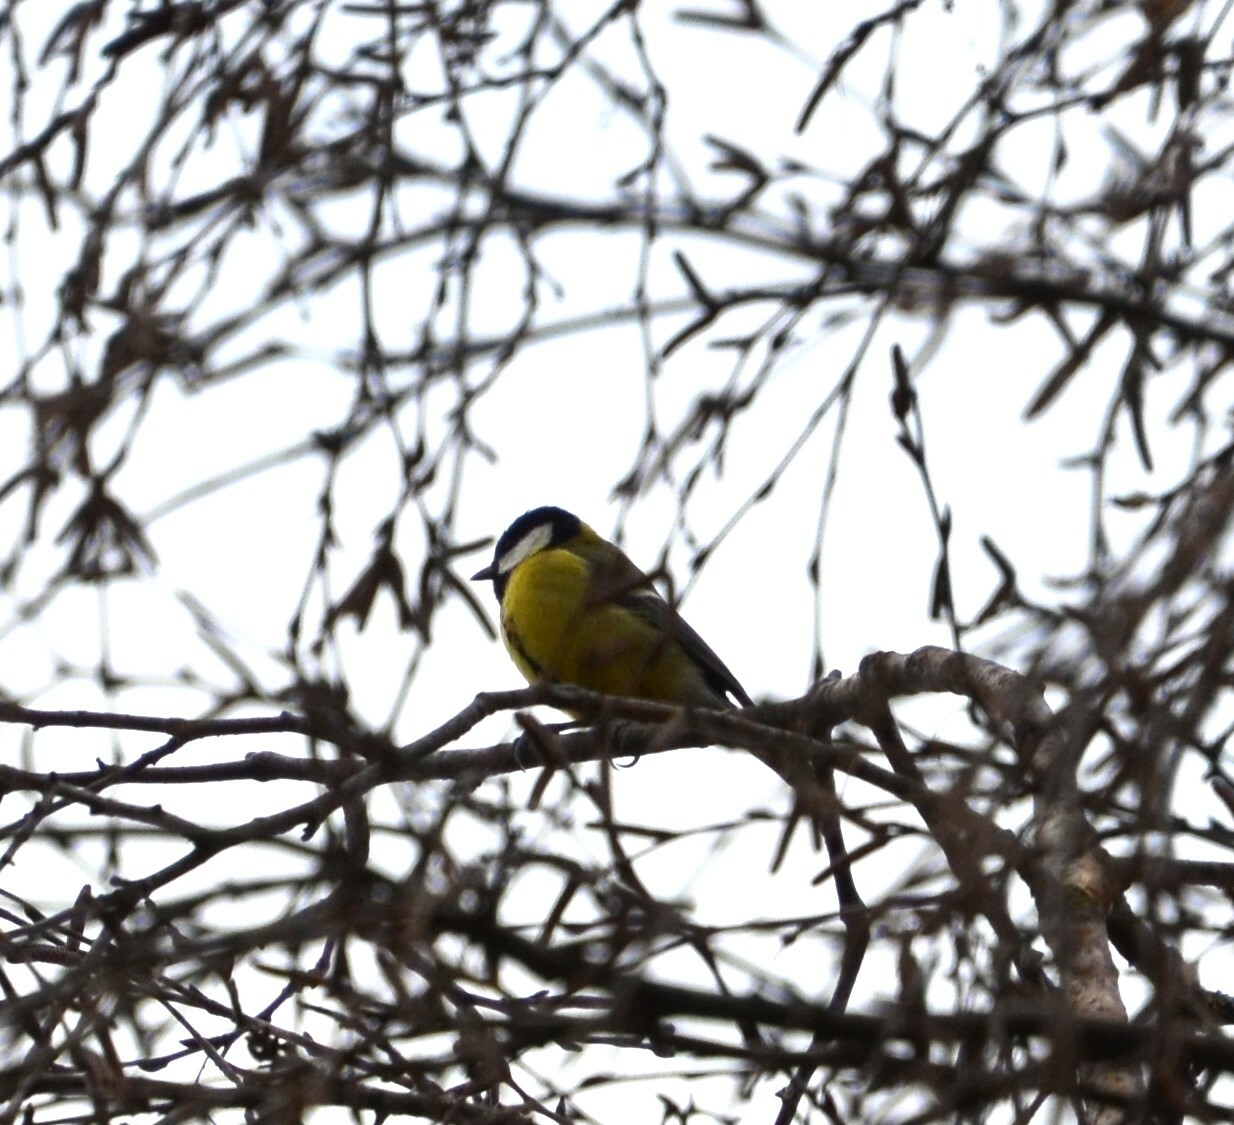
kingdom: Animalia
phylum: Chordata
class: Aves
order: Passeriformes
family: Paridae
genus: Parus
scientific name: Parus major
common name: Great tit
